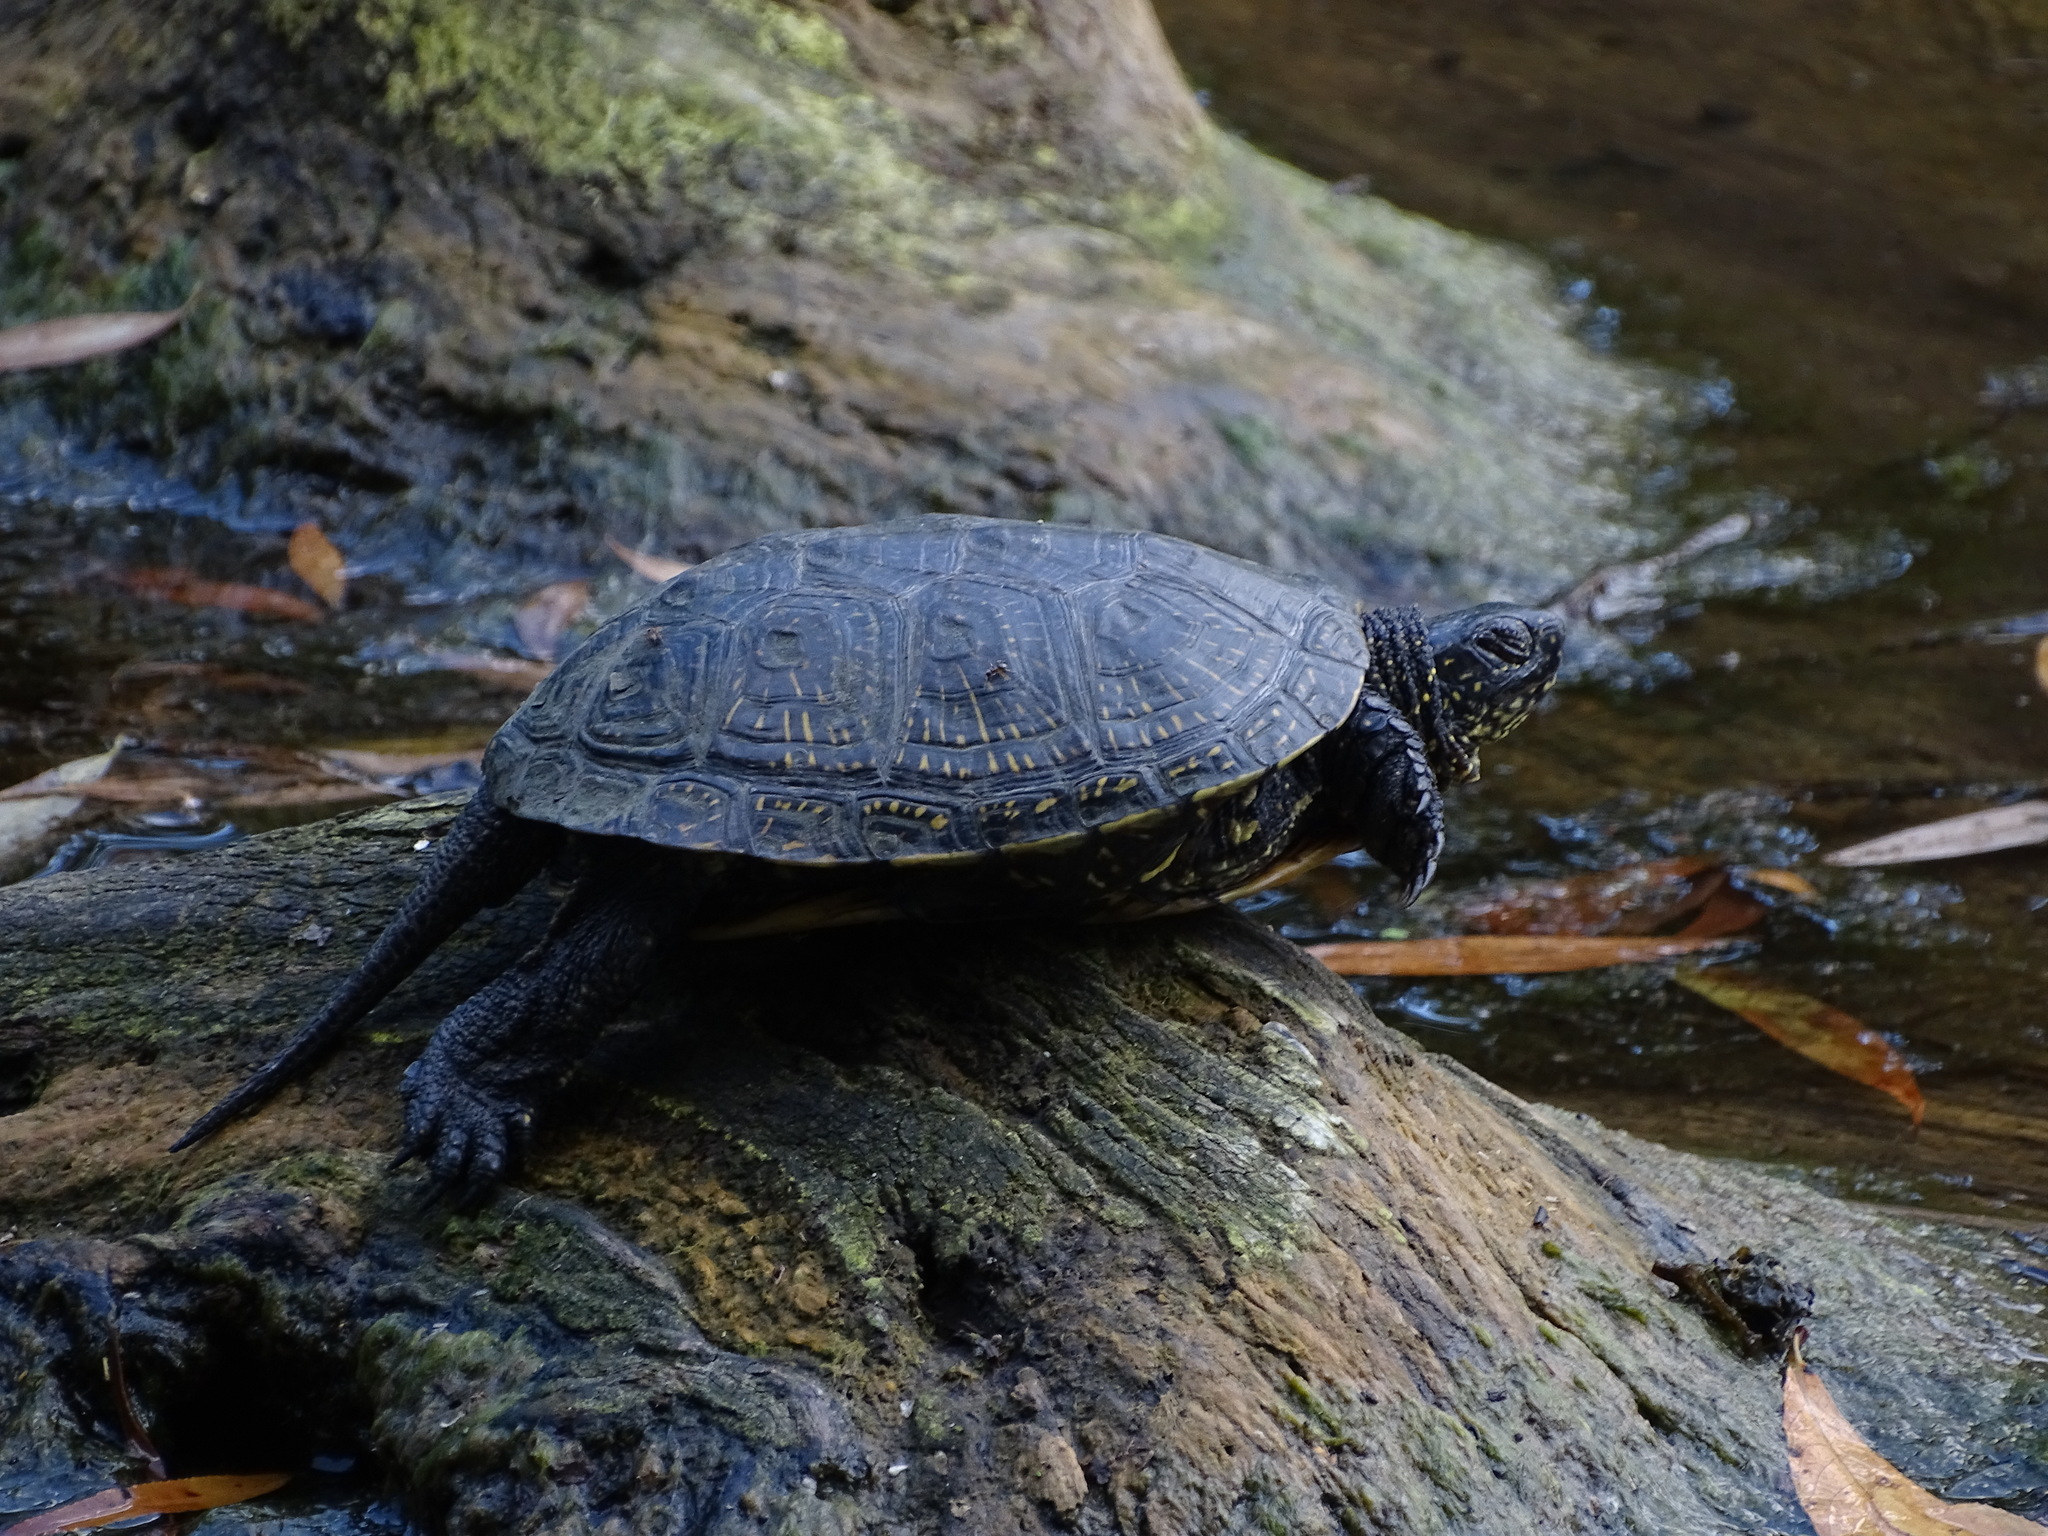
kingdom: Animalia
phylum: Chordata
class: Testudines
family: Emydidae
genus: Emys
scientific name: Emys orbicularis
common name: European pond turtle
